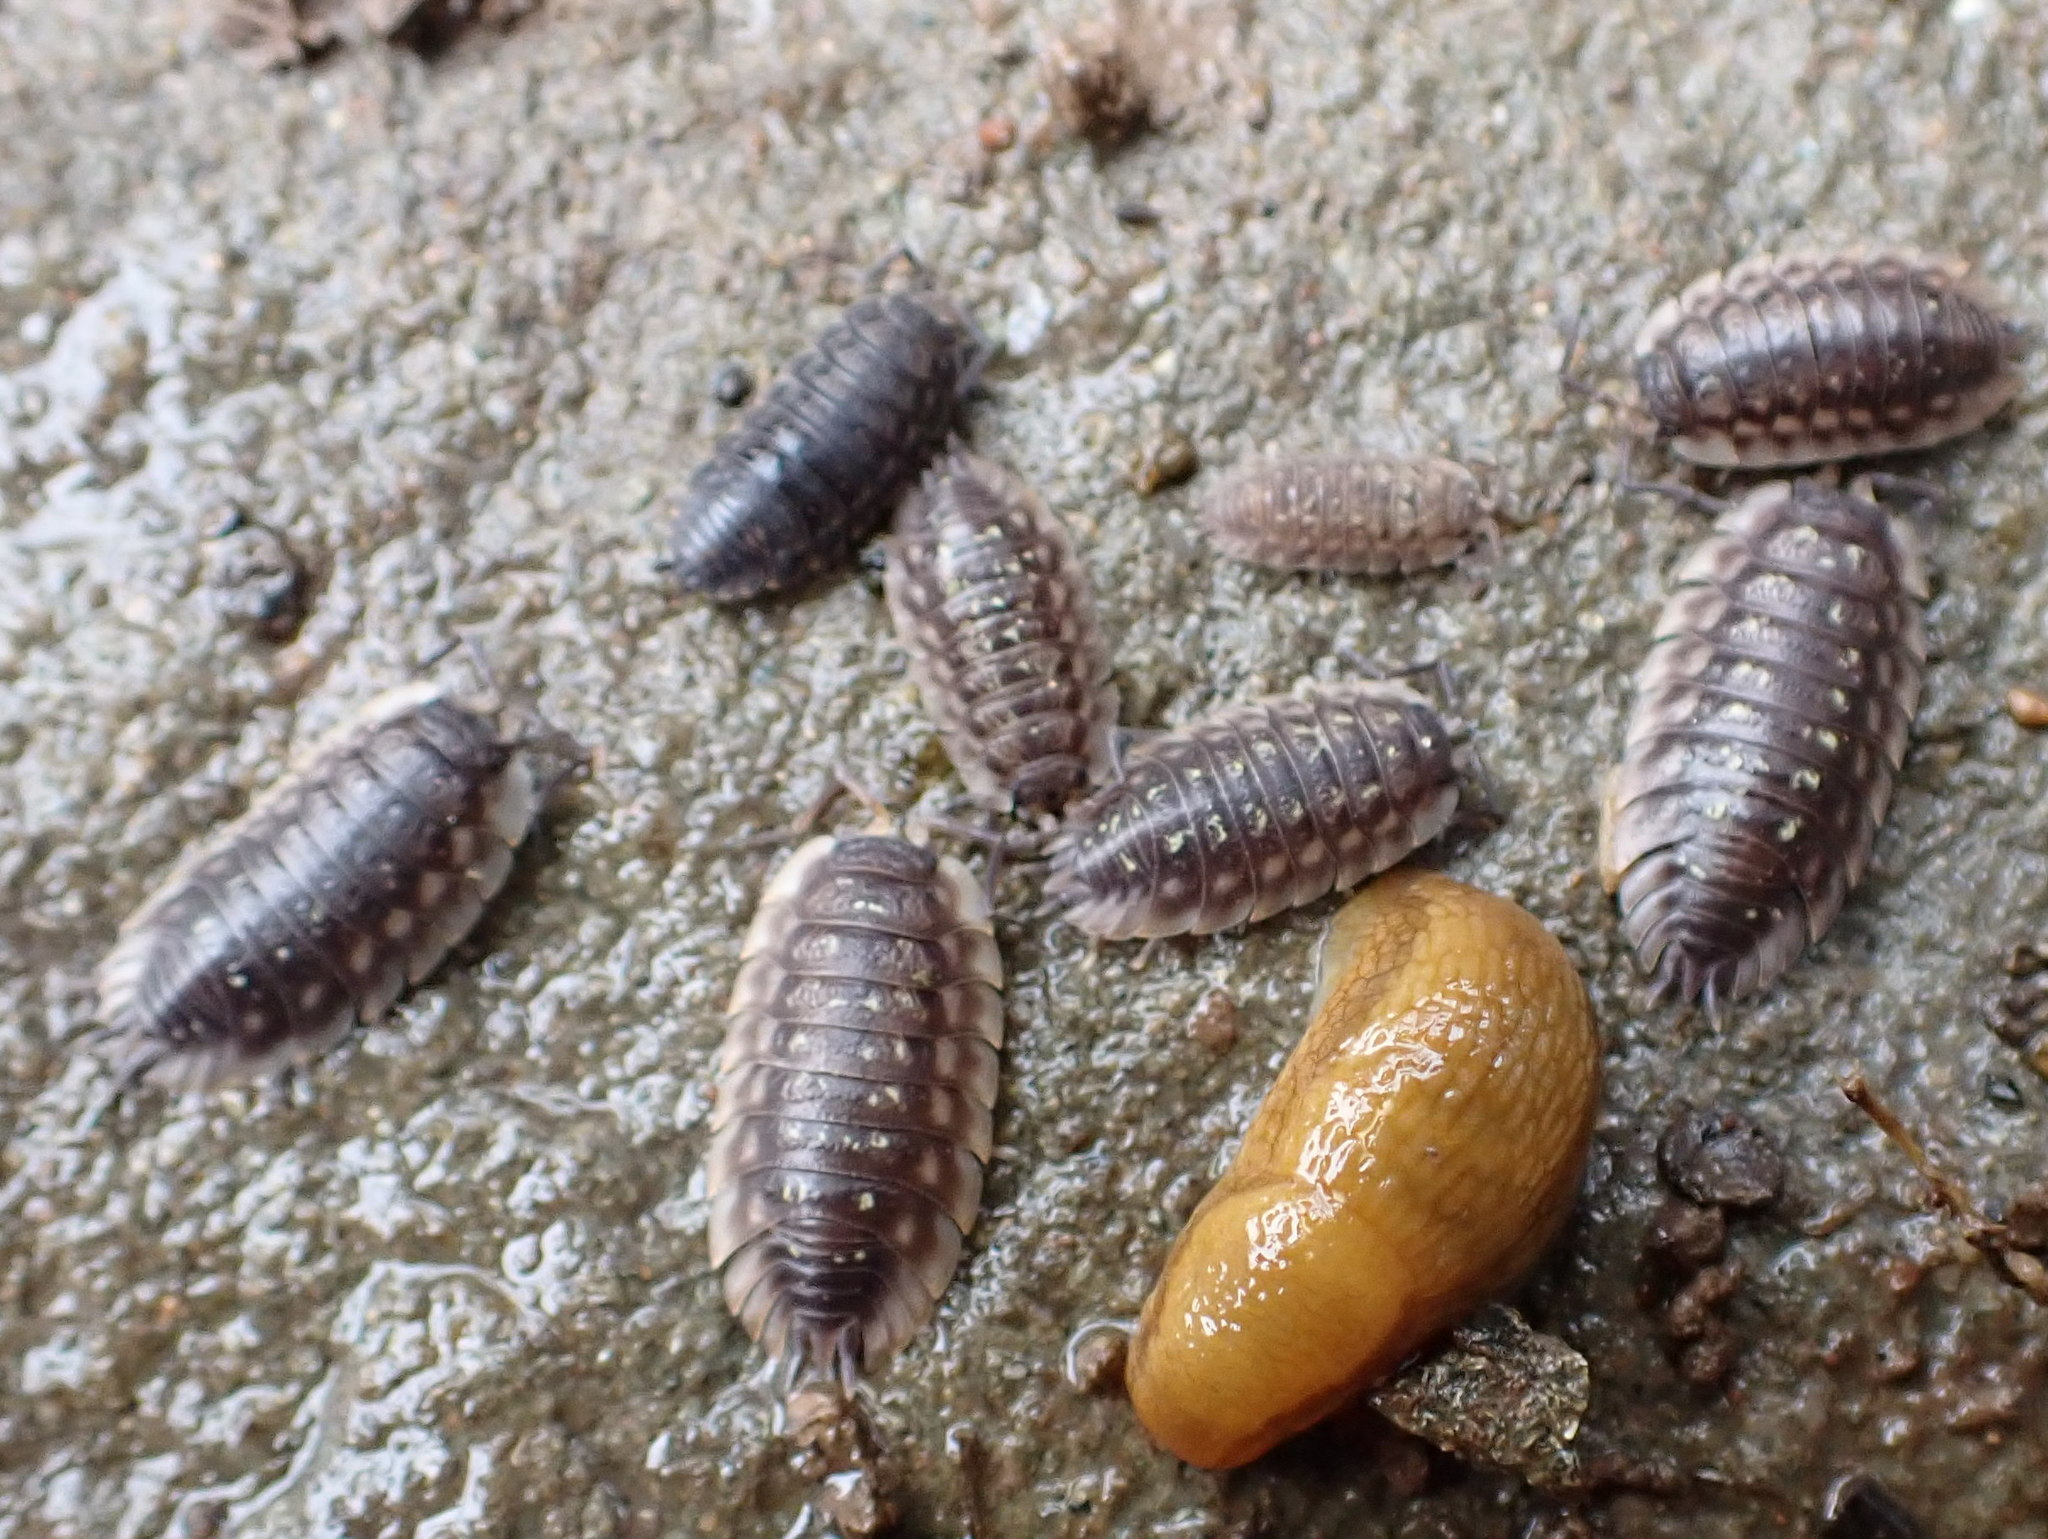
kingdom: Animalia
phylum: Arthropoda
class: Malacostraca
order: Isopoda
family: Oniscidae
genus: Oniscus
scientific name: Oniscus asellus
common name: Common shiny woodlouse
